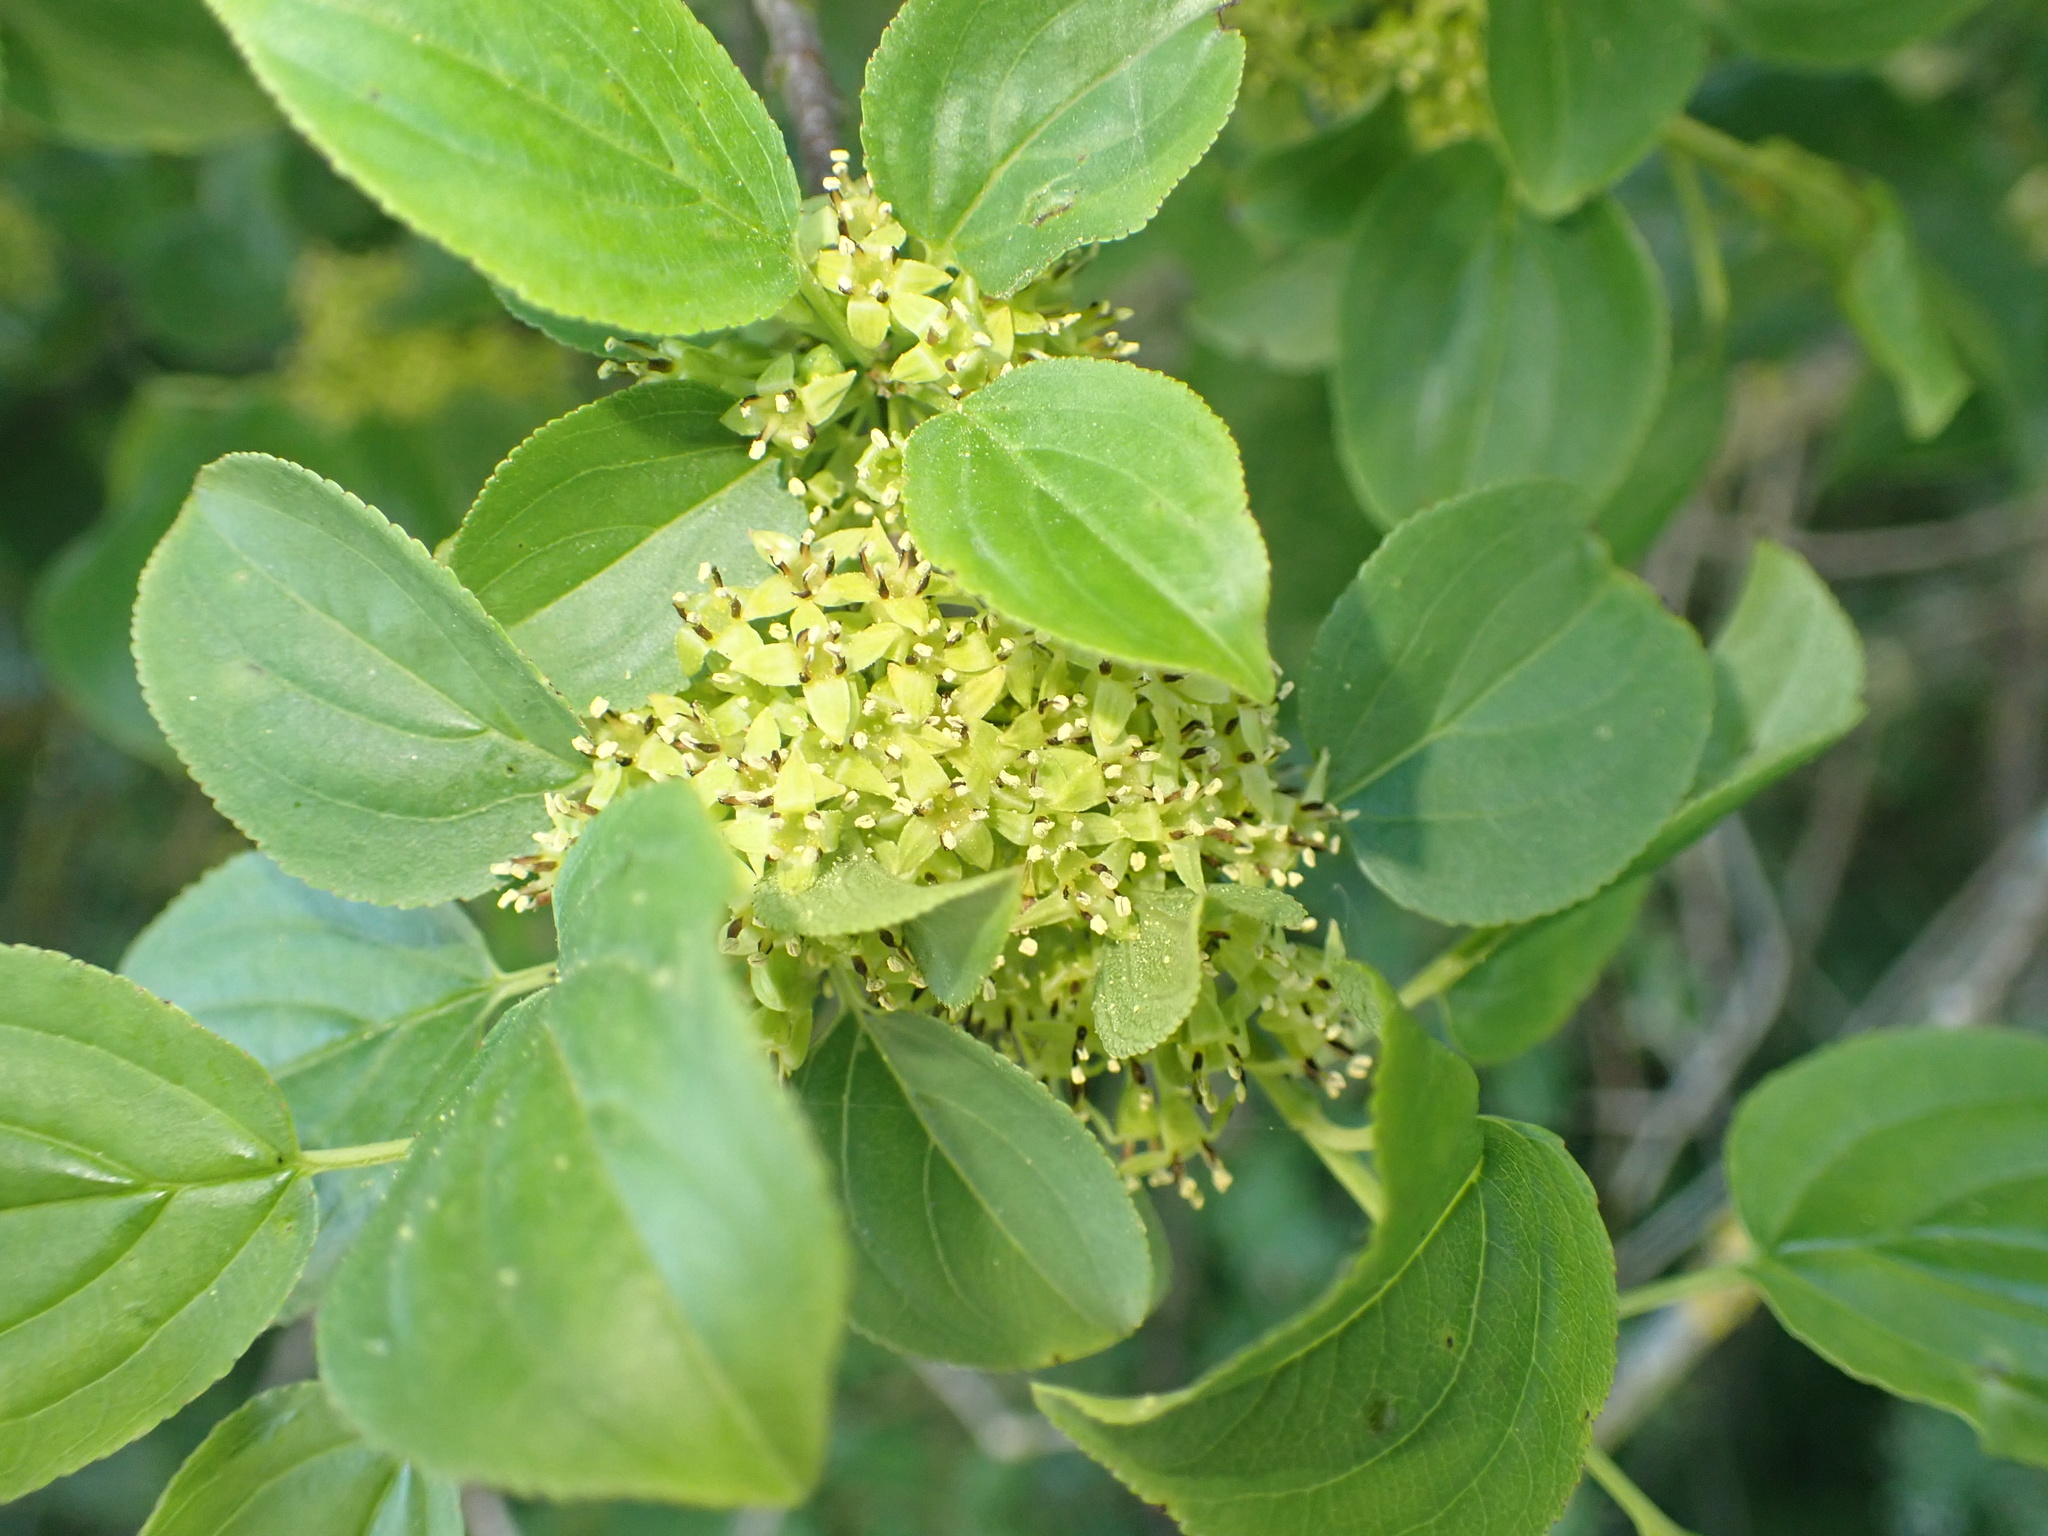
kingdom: Plantae
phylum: Tracheophyta
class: Magnoliopsida
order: Rosales
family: Rhamnaceae
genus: Rhamnus
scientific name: Rhamnus cathartica
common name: Common buckthorn
